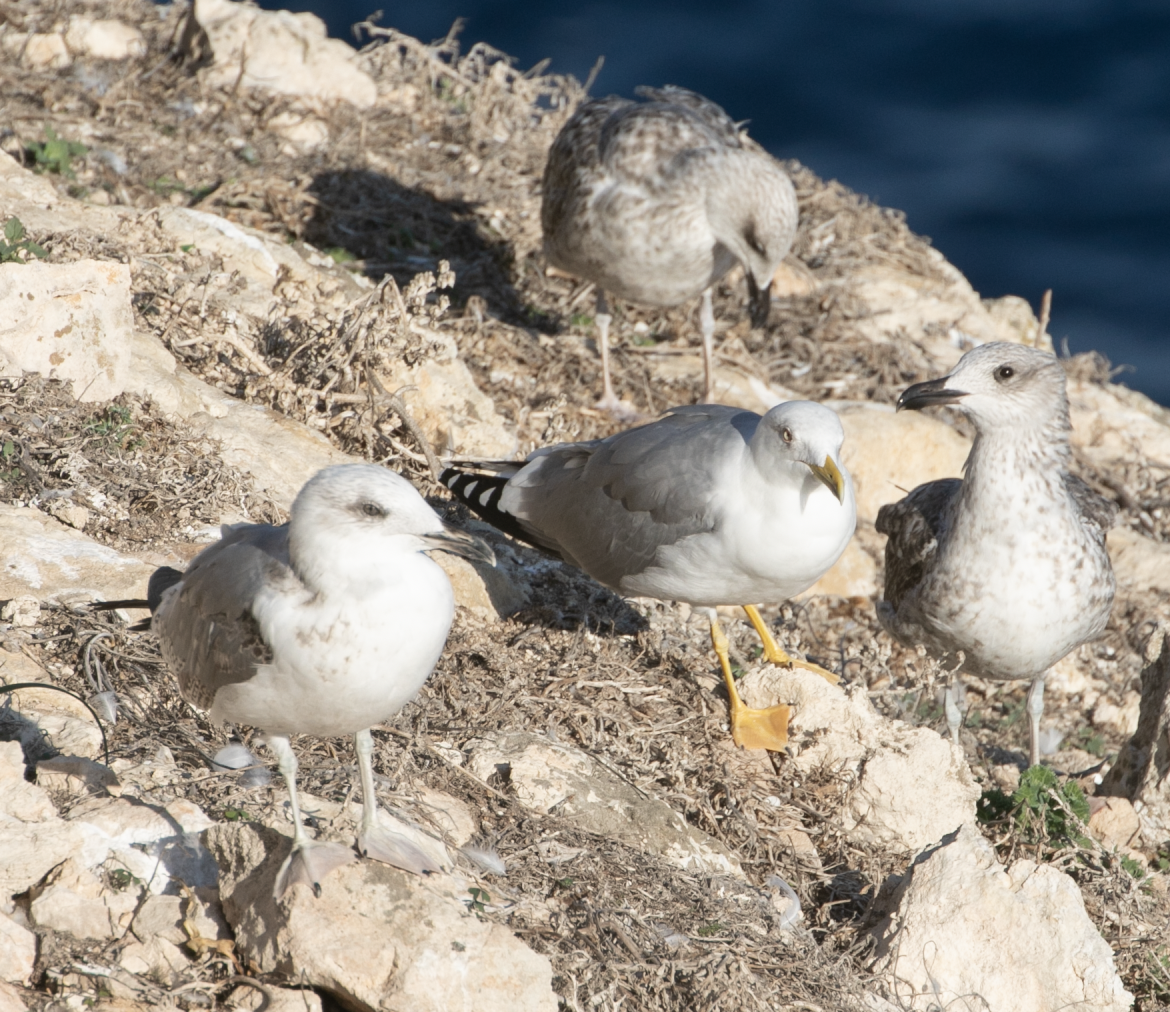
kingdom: Animalia
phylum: Chordata
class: Aves
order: Charadriiformes
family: Laridae
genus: Larus
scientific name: Larus michahellis
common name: Yellow-legged gull
